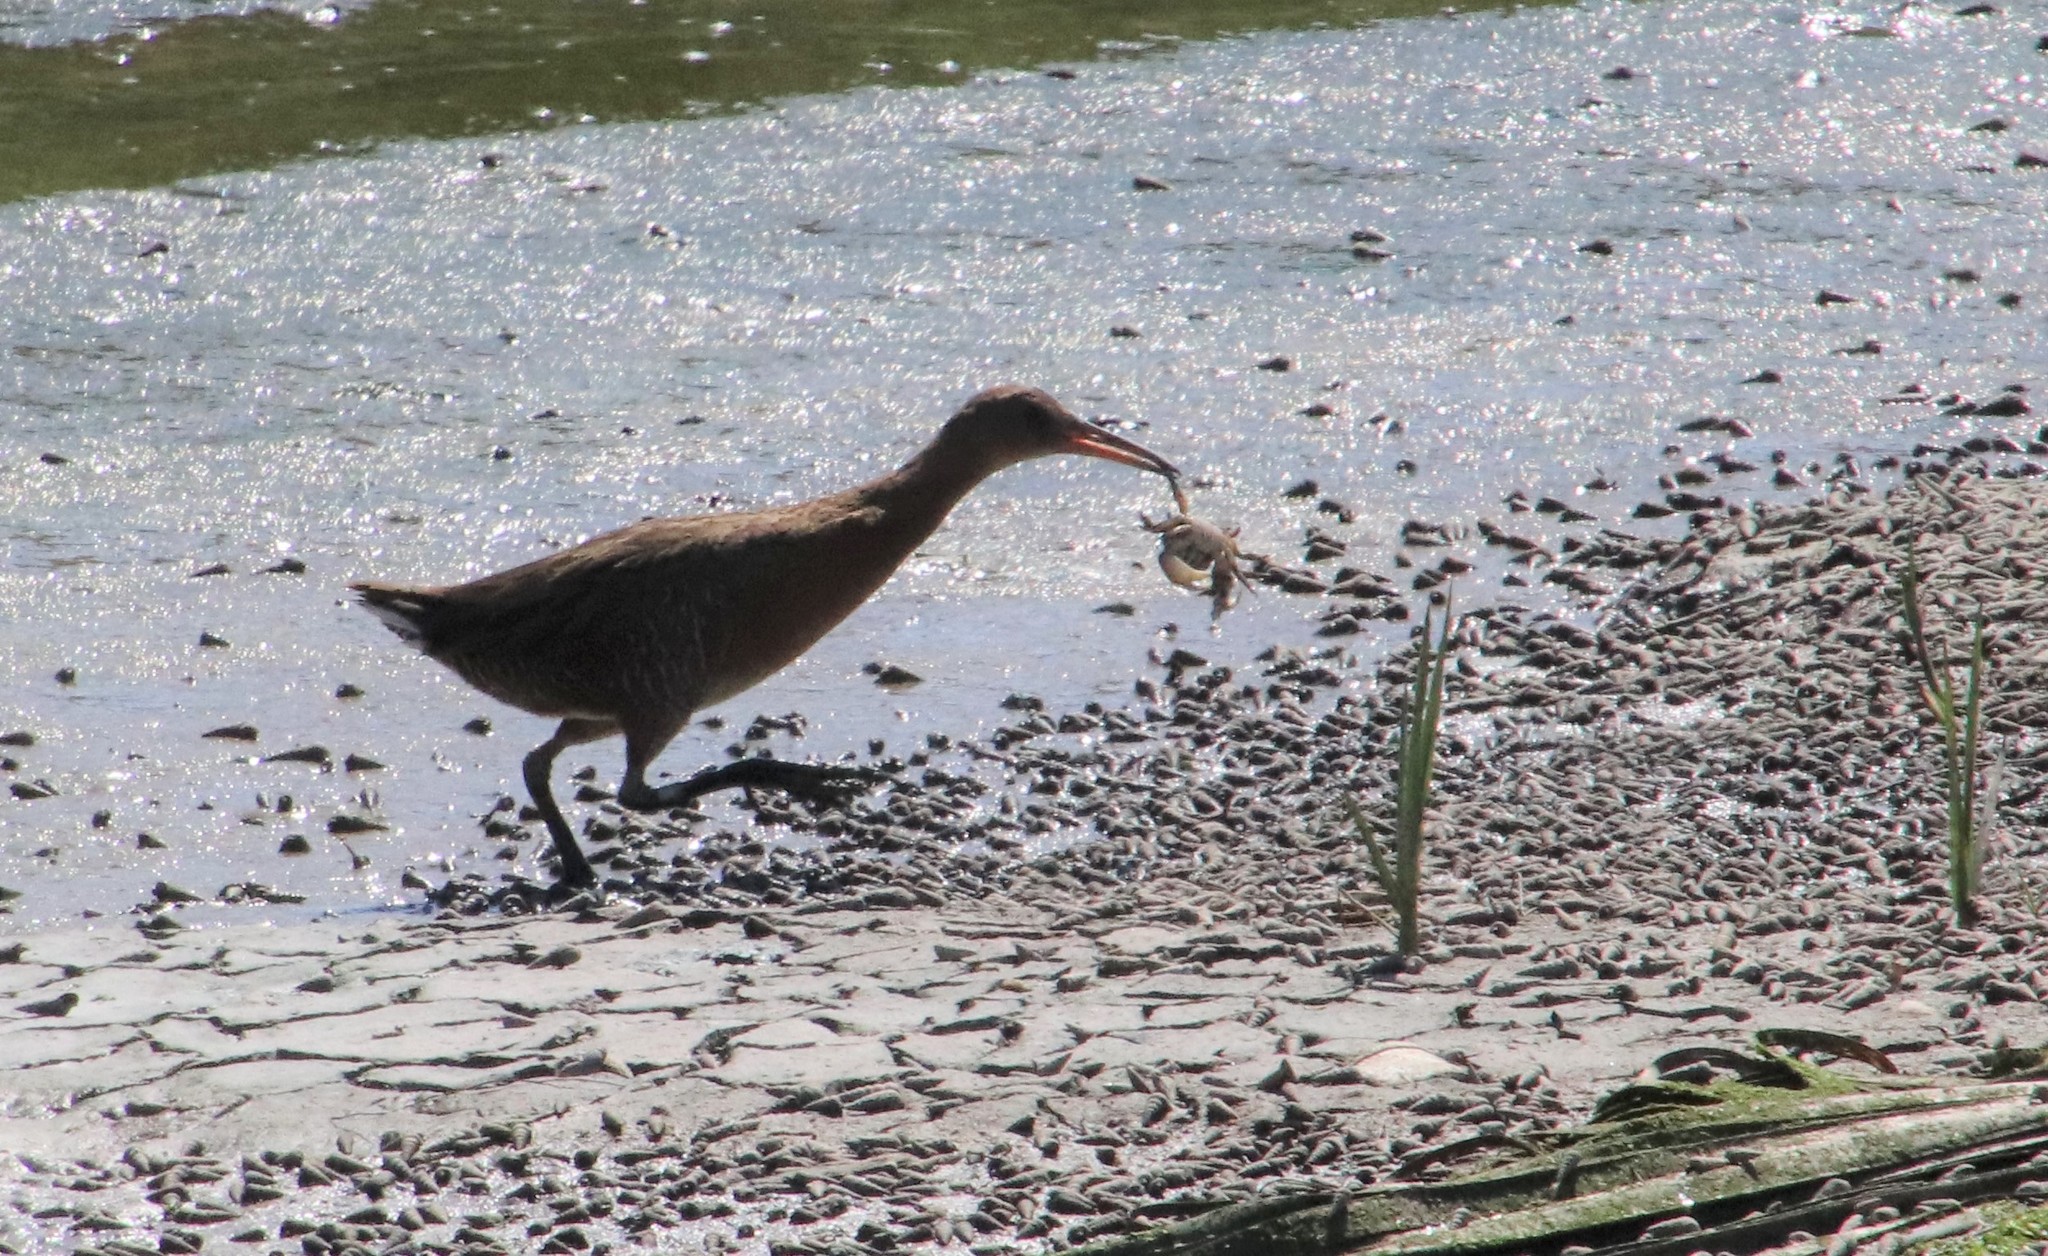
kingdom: Animalia
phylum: Chordata
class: Aves
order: Gruiformes
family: Rallidae
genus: Rallus
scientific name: Rallus obsoletus
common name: Ridgway's rail
